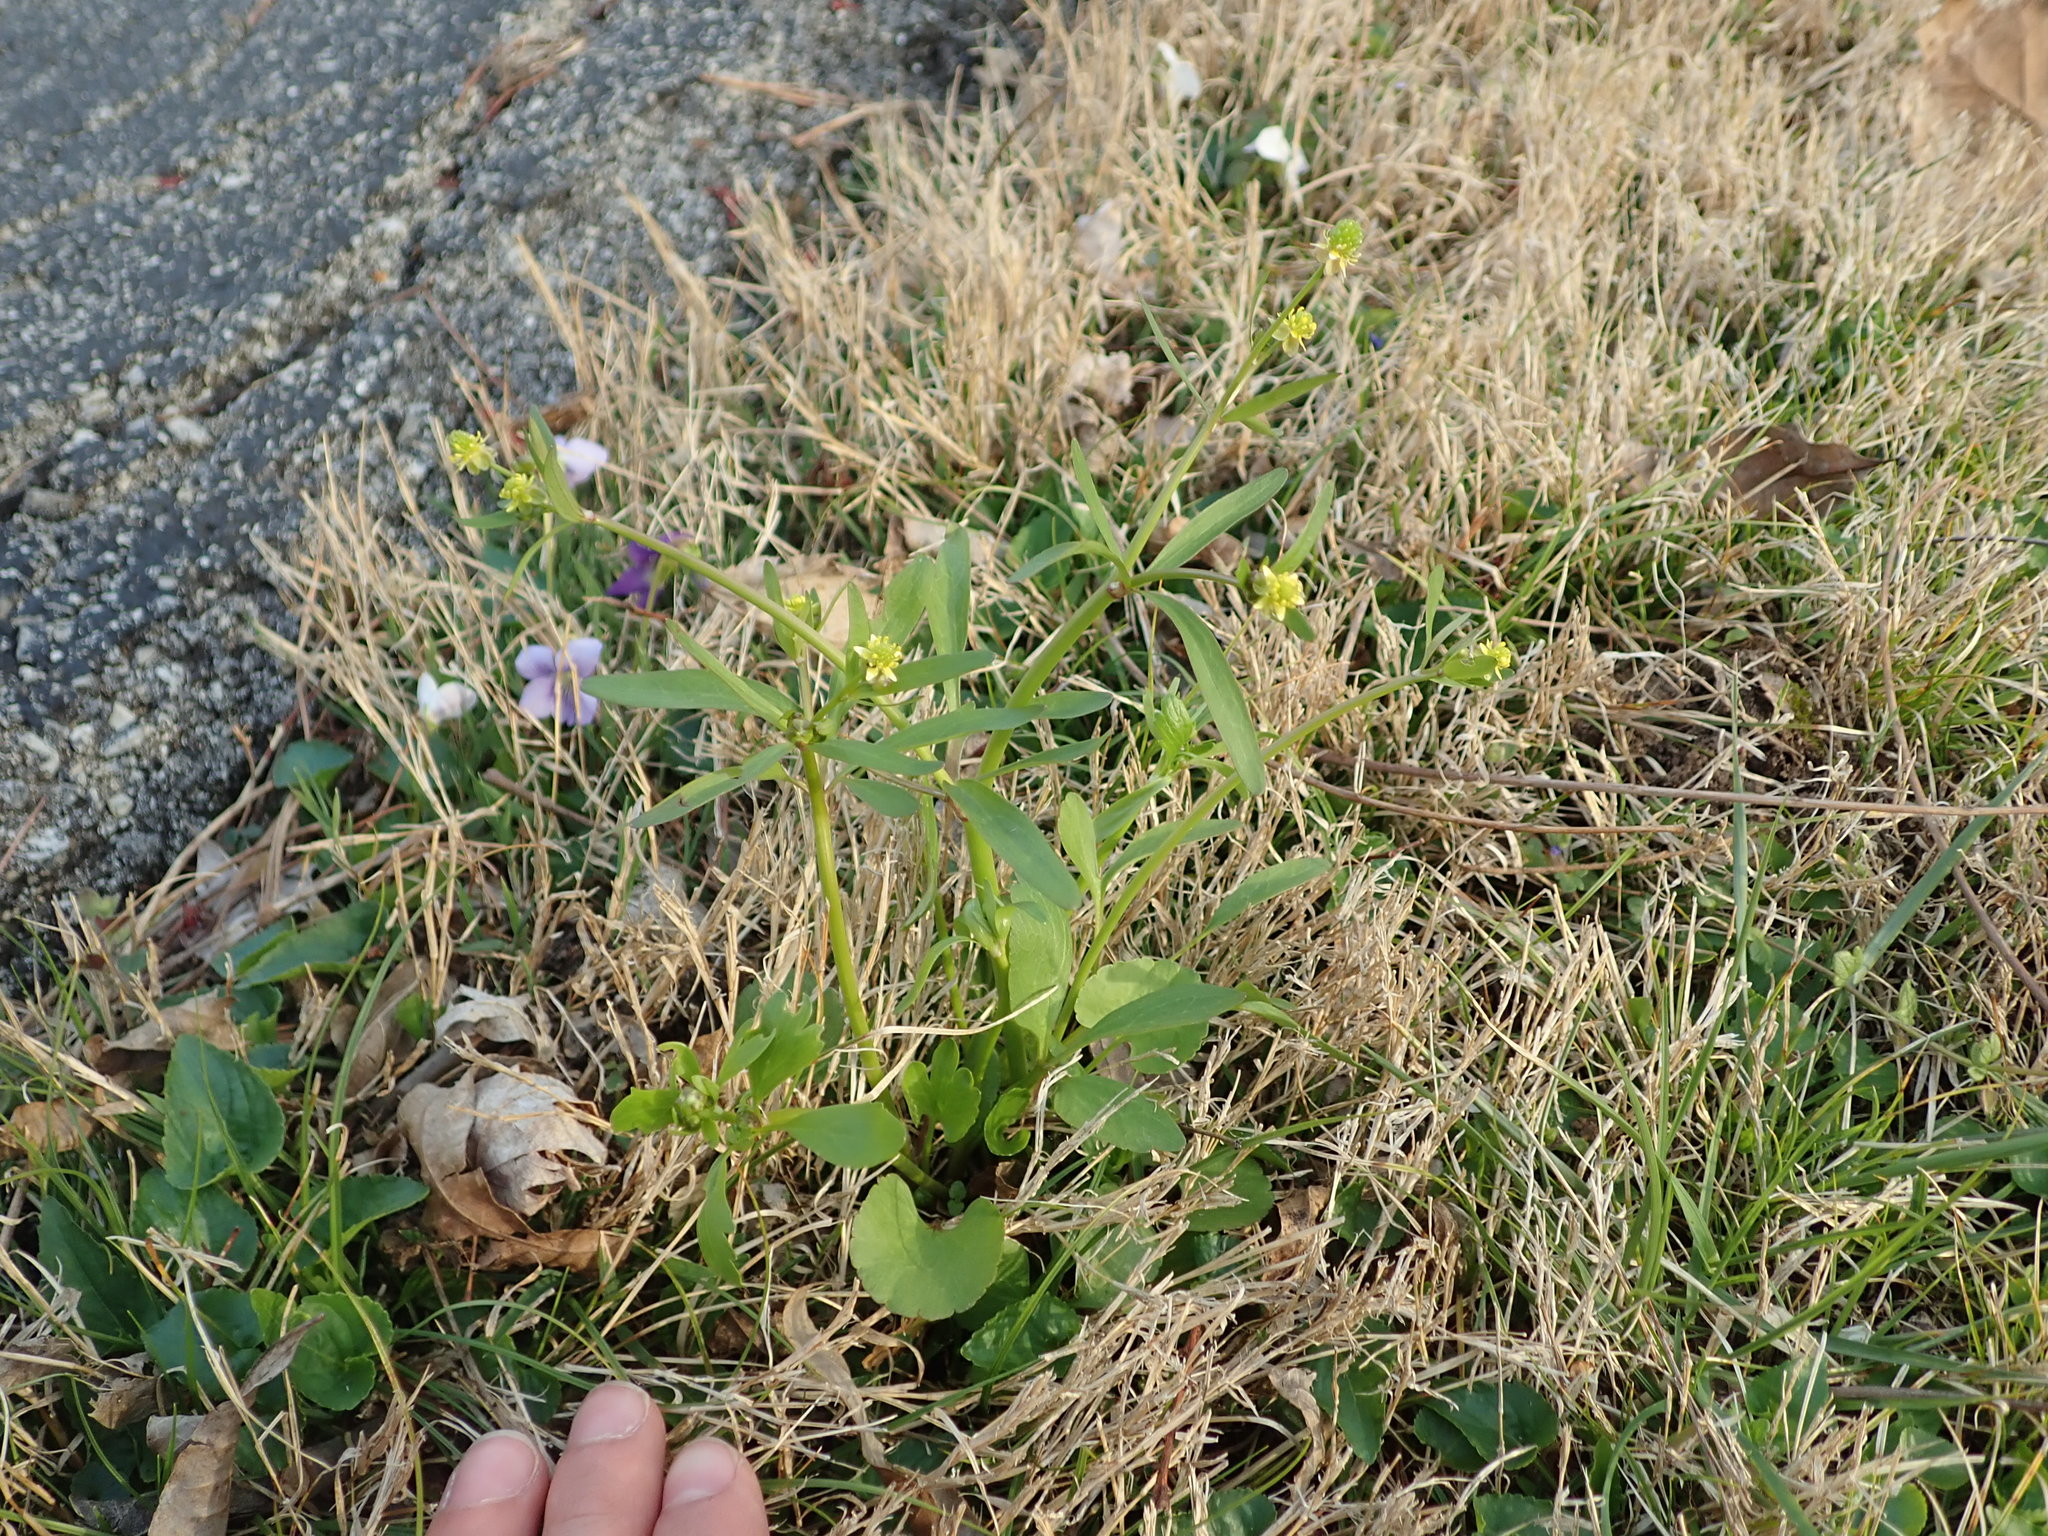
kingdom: Plantae
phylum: Tracheophyta
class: Magnoliopsida
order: Ranunculales
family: Ranunculaceae
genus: Ranunculus
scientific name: Ranunculus abortivus
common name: Early wood buttercup
